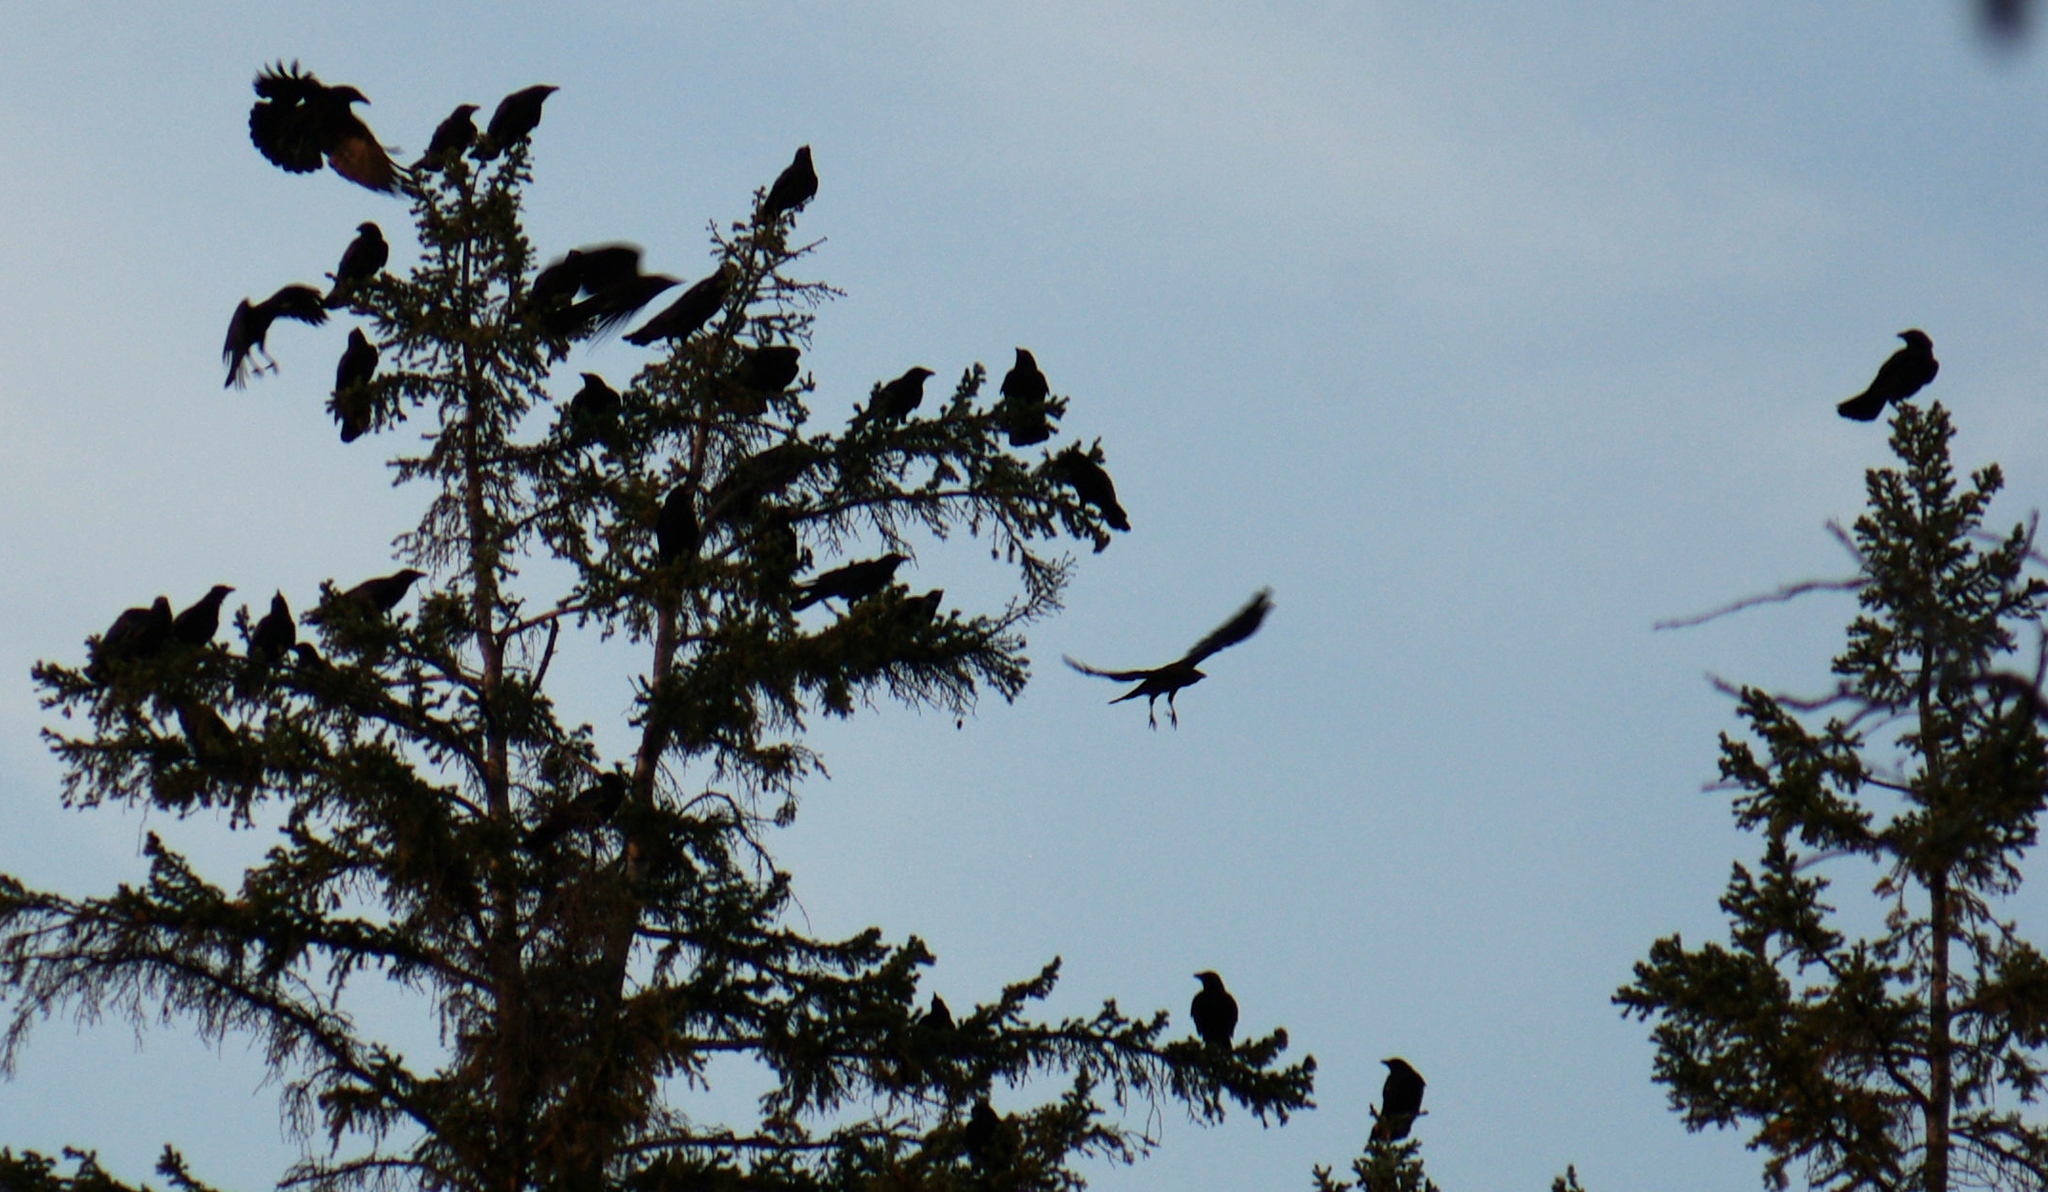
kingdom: Animalia
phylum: Chordata
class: Aves
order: Passeriformes
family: Corvidae
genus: Corvus
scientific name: Corvus brachyrhynchos
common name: American crow
